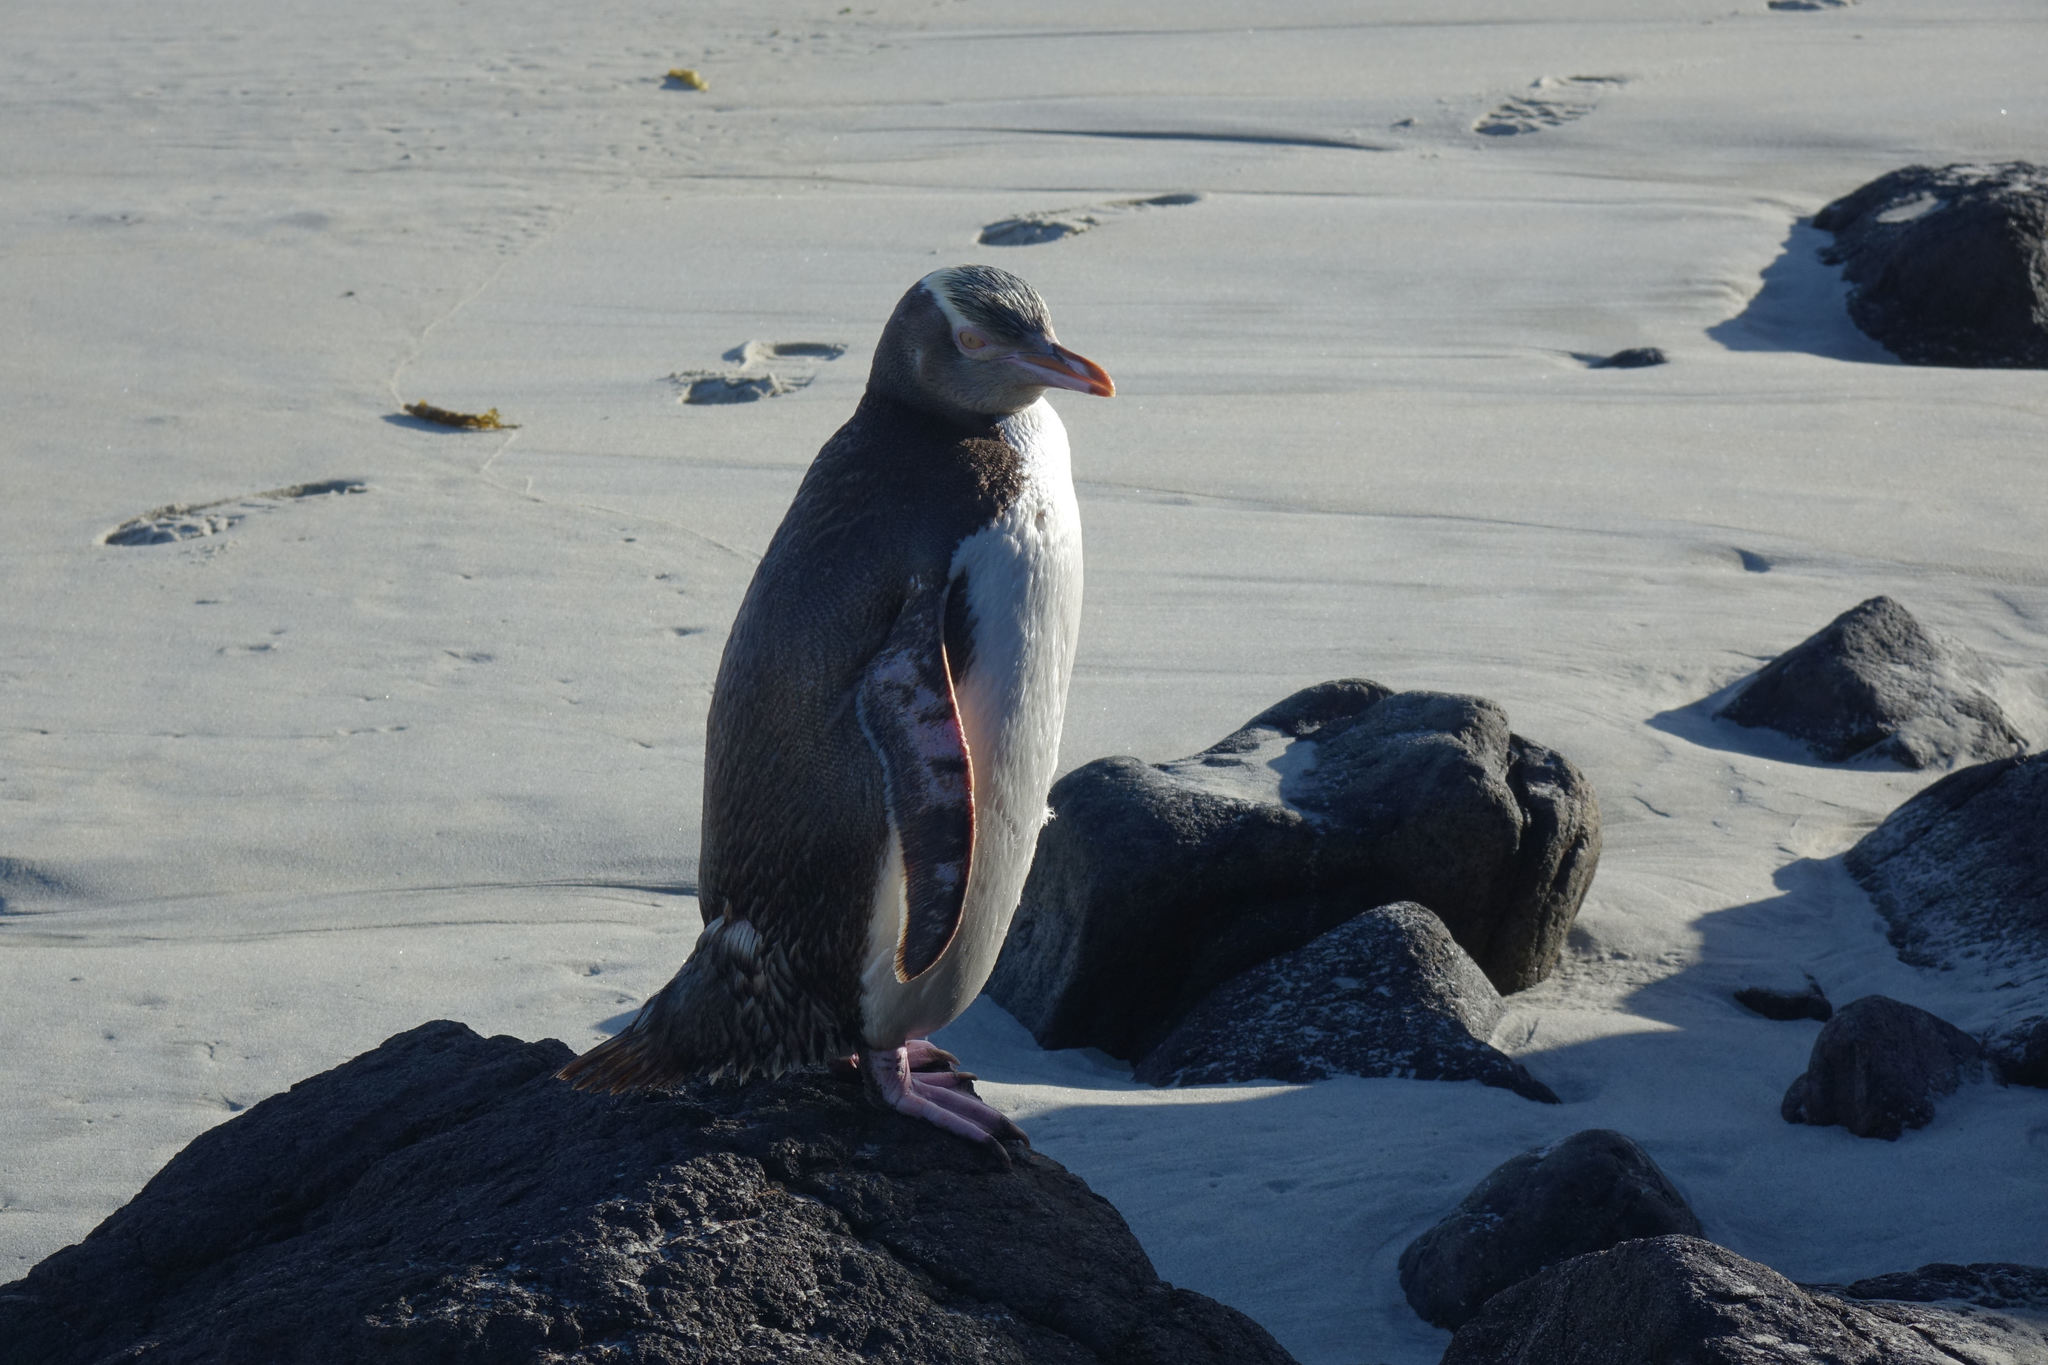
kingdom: Animalia
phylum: Chordata
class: Aves
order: Sphenisciformes
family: Spheniscidae
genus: Megadyptes
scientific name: Megadyptes antipodes
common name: Yellow-eyed penguin
